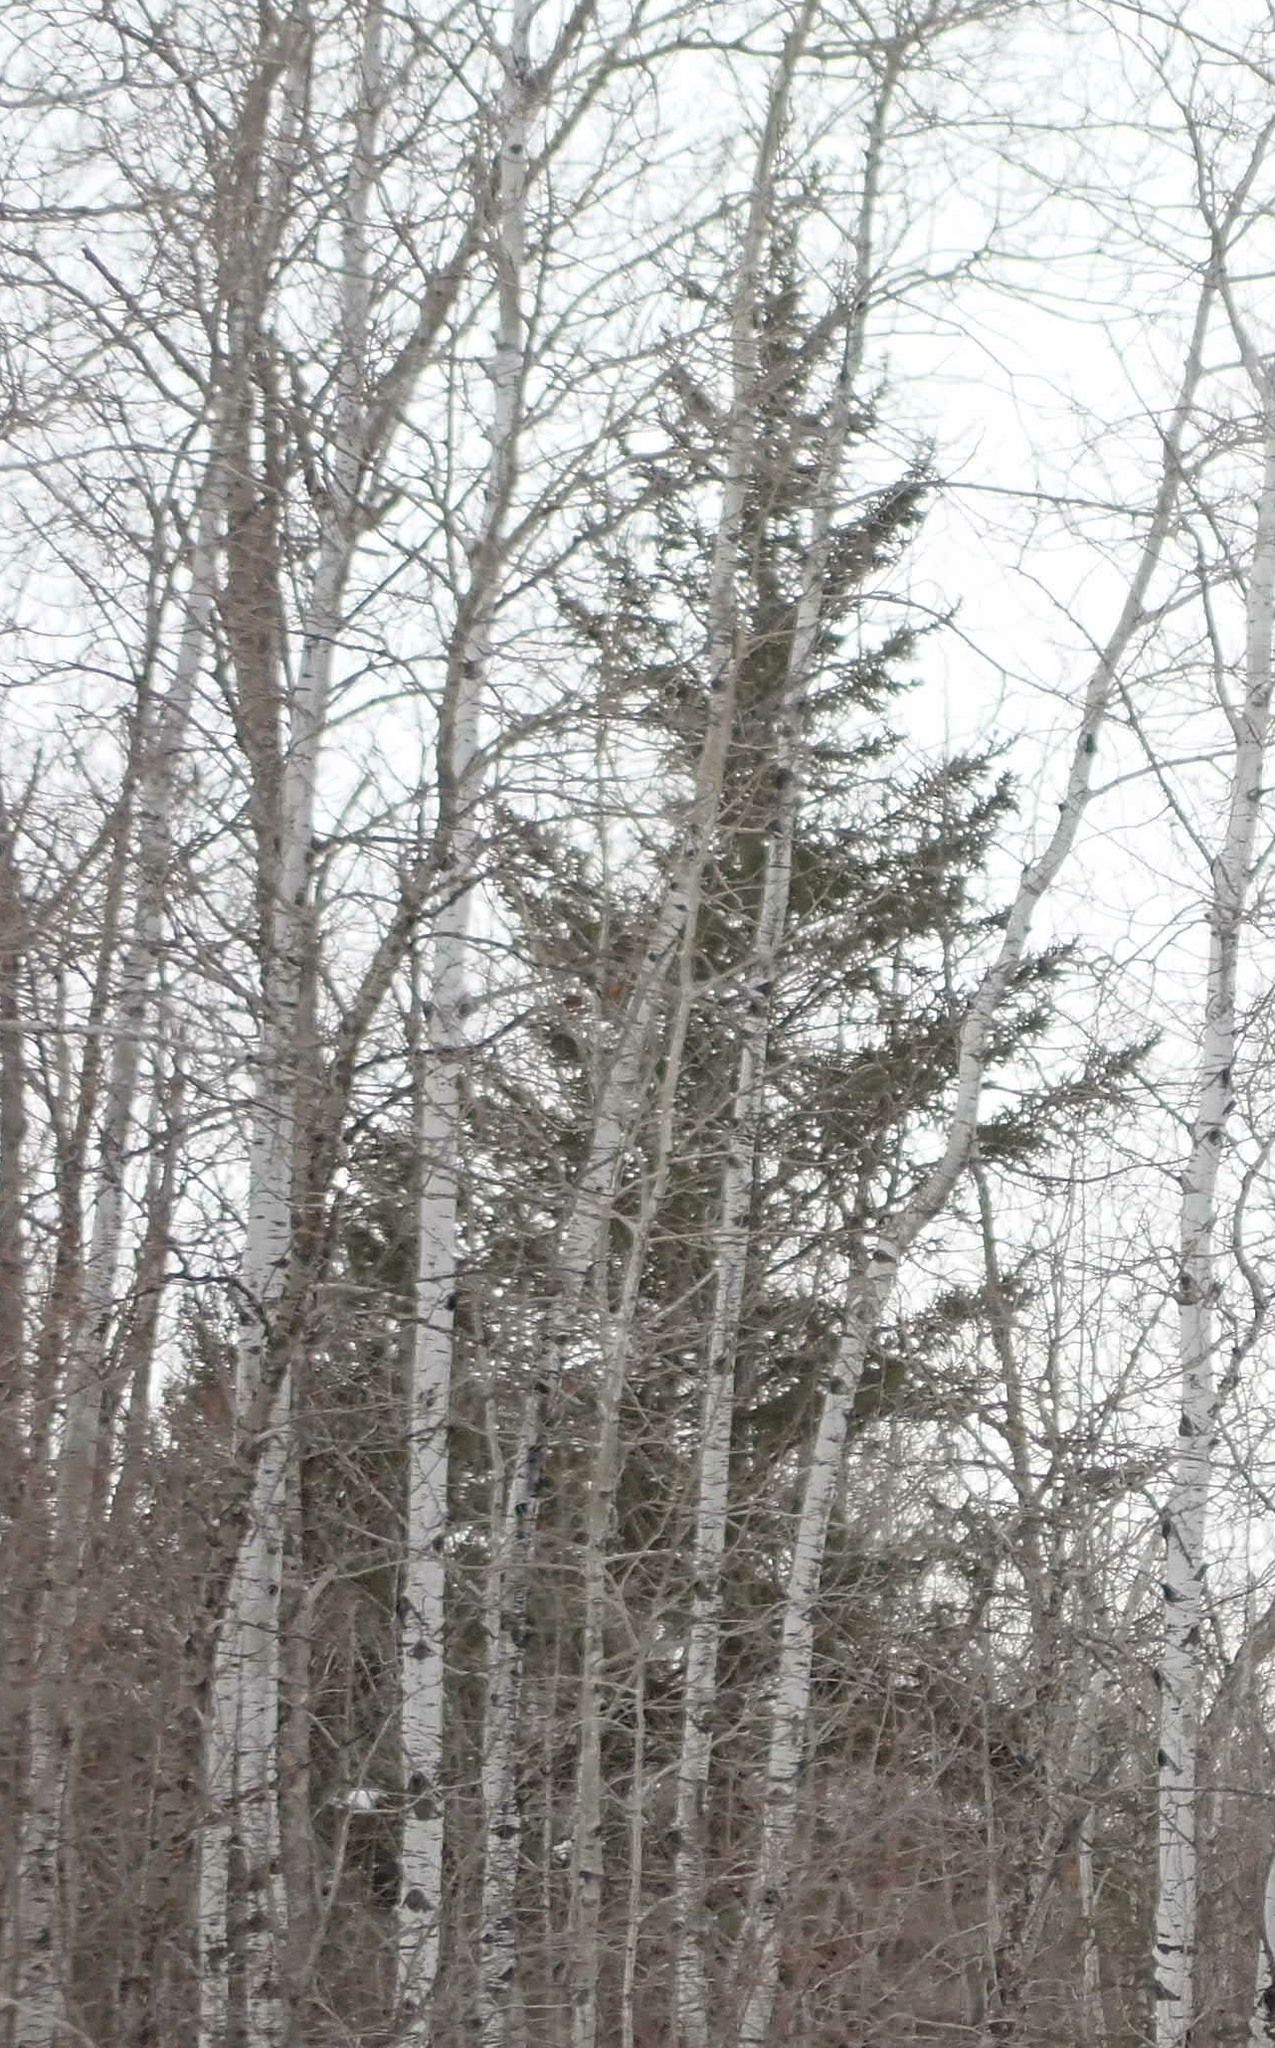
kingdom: Plantae
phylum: Tracheophyta
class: Pinopsida
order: Pinales
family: Pinaceae
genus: Picea
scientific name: Picea glauca
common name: White spruce
